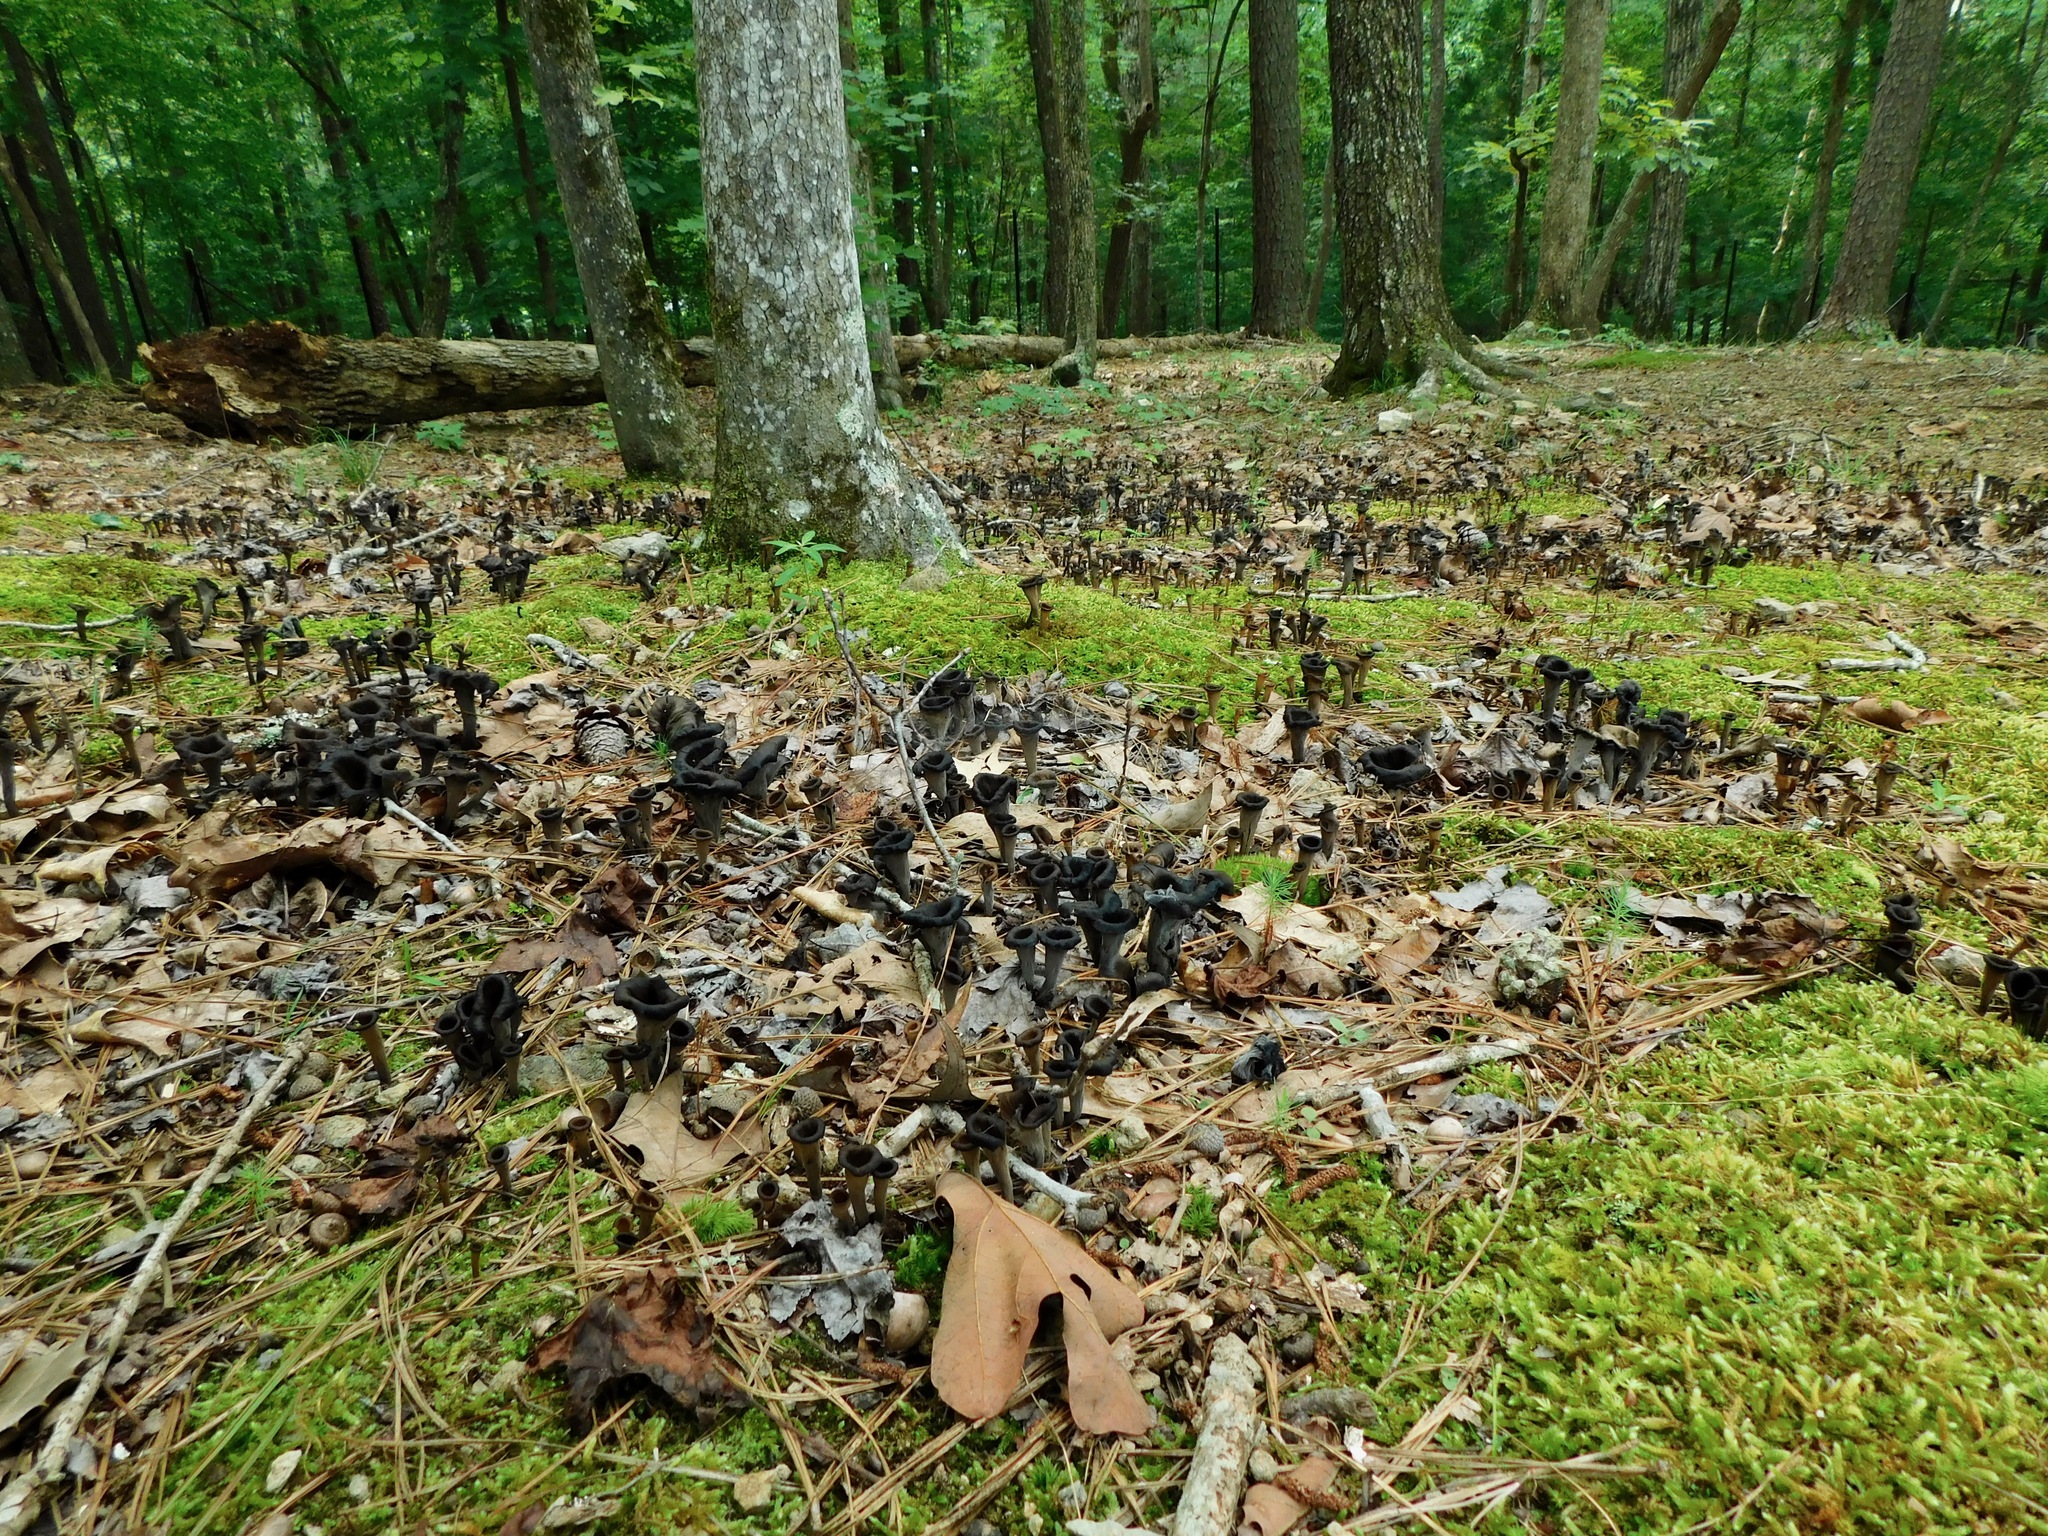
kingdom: Fungi
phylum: Basidiomycota
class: Agaricomycetes
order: Cantharellales
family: Hydnaceae
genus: Craterellus
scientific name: Craterellus cornucopioides
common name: Horn of plenty
